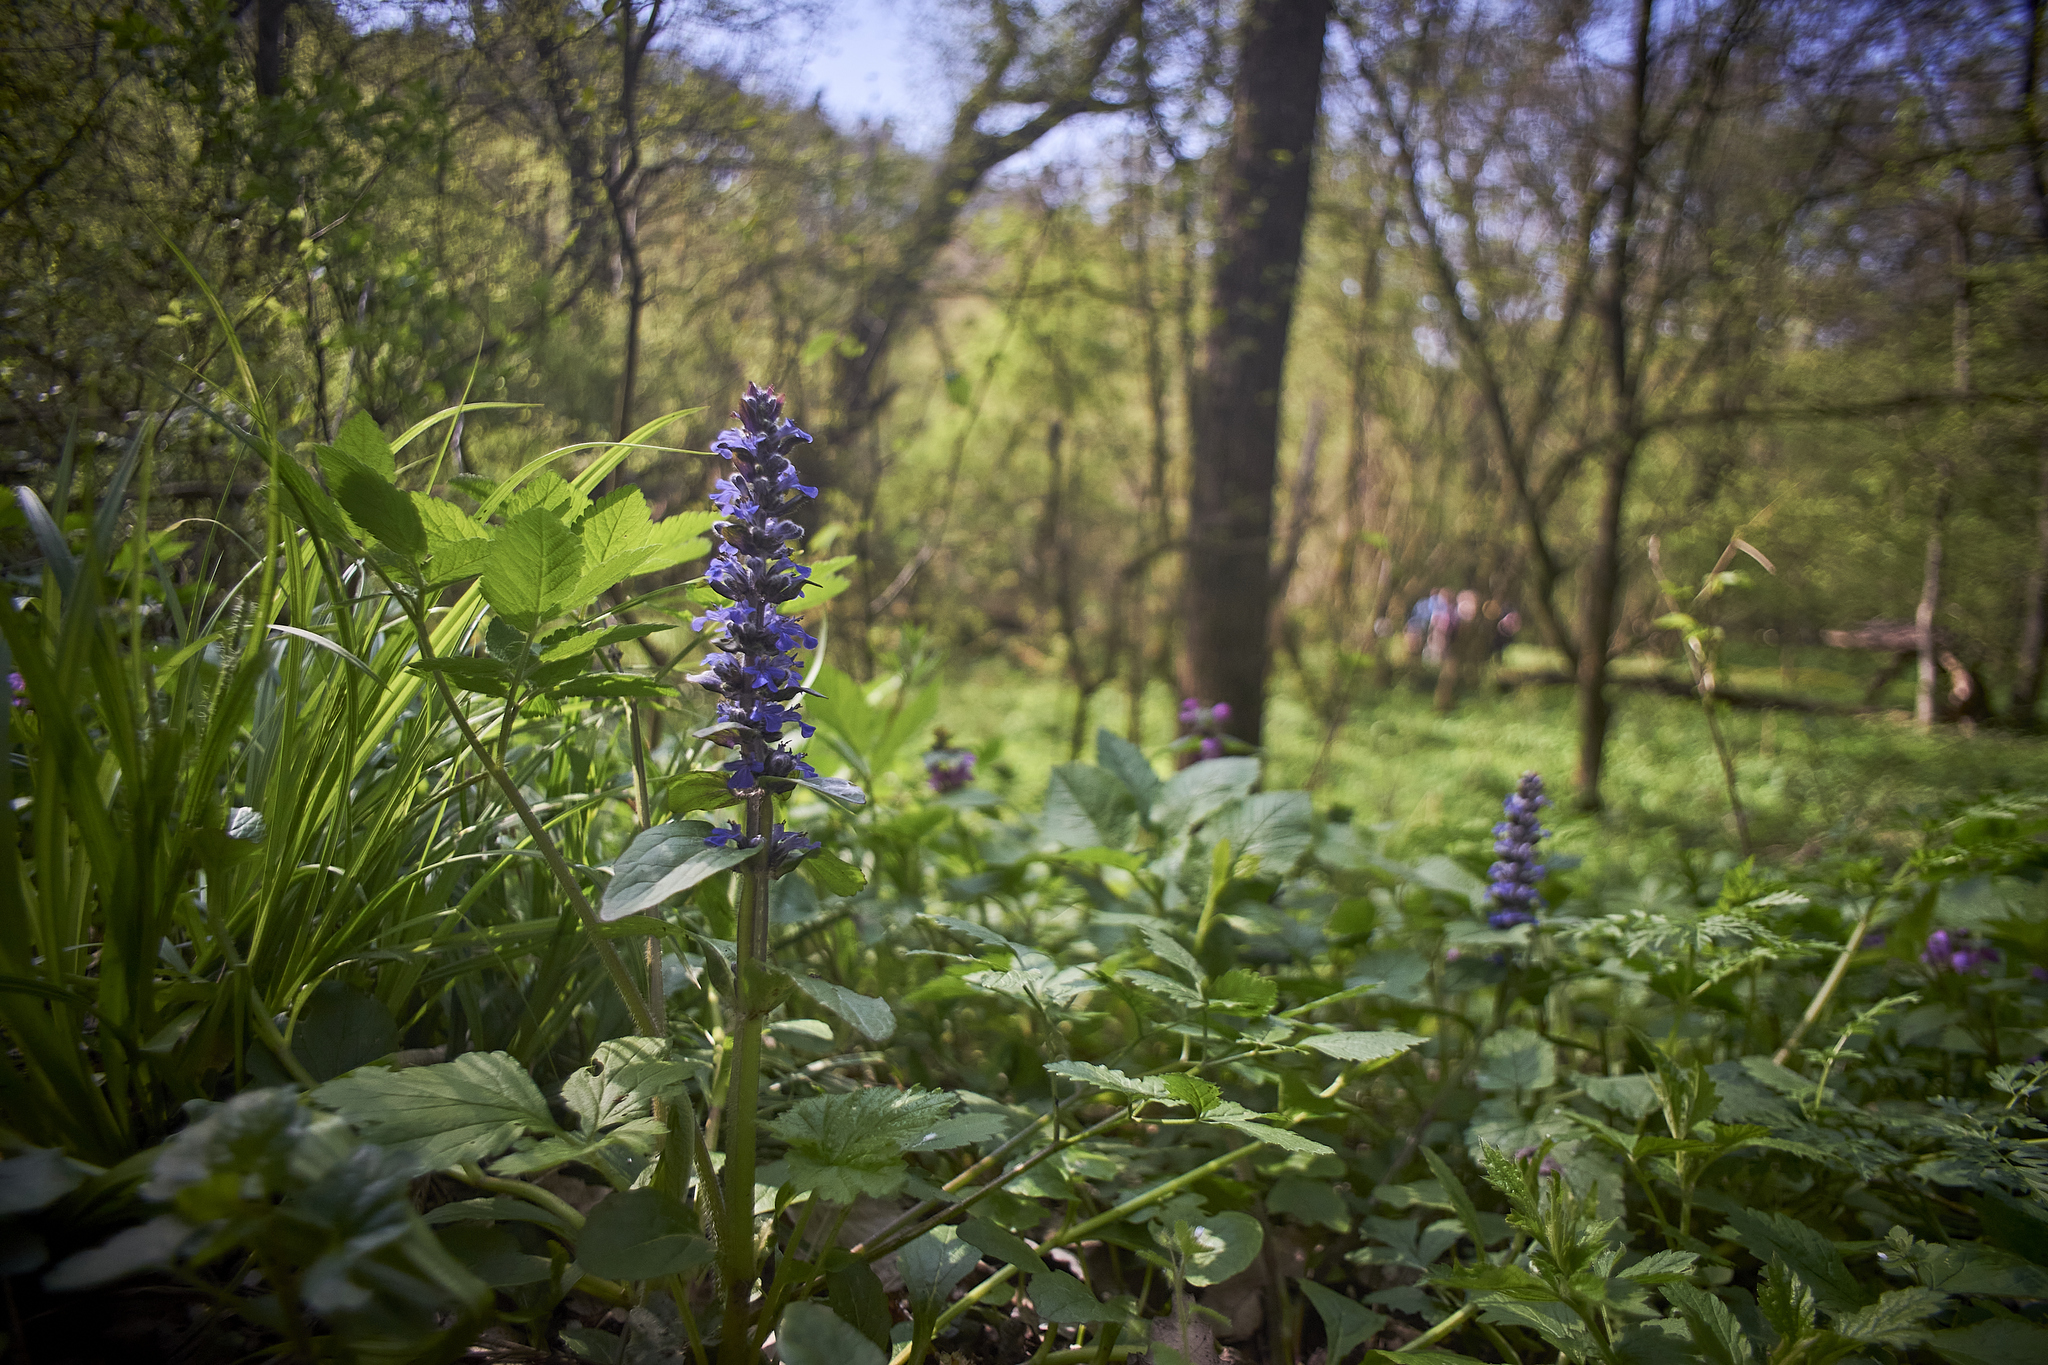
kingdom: Plantae
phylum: Tracheophyta
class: Magnoliopsida
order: Lamiales
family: Lamiaceae
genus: Ajuga
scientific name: Ajuga reptans
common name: Bugle
